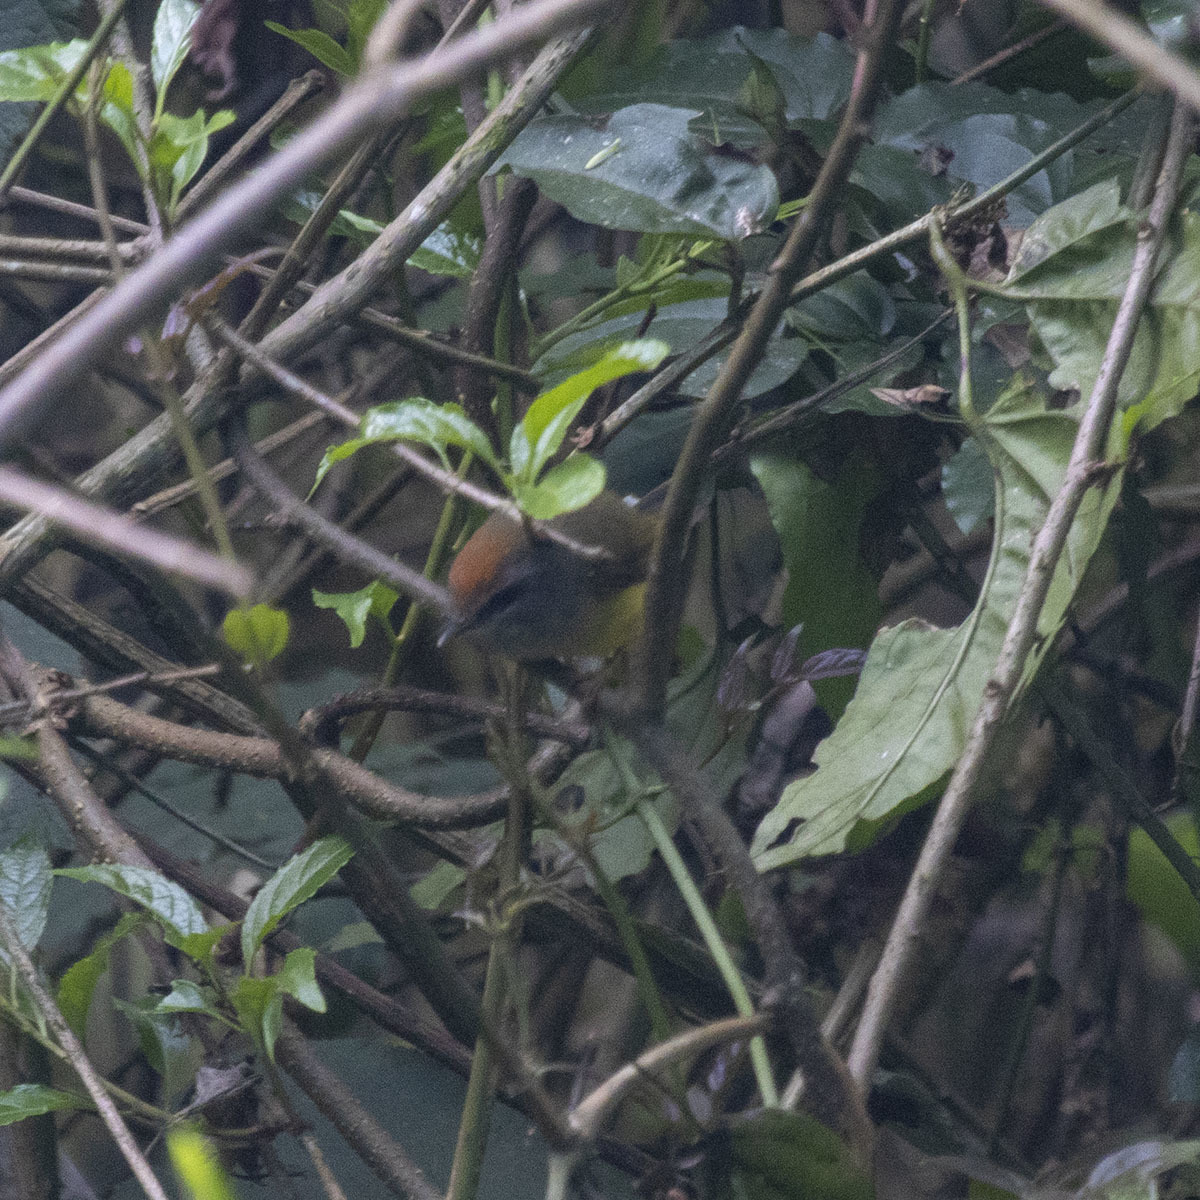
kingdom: Animalia
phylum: Chordata
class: Aves
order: Passeriformes
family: Cettiidae
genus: Tickellia
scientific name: Tickellia hodgsoni
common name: Broad-billed warbler
